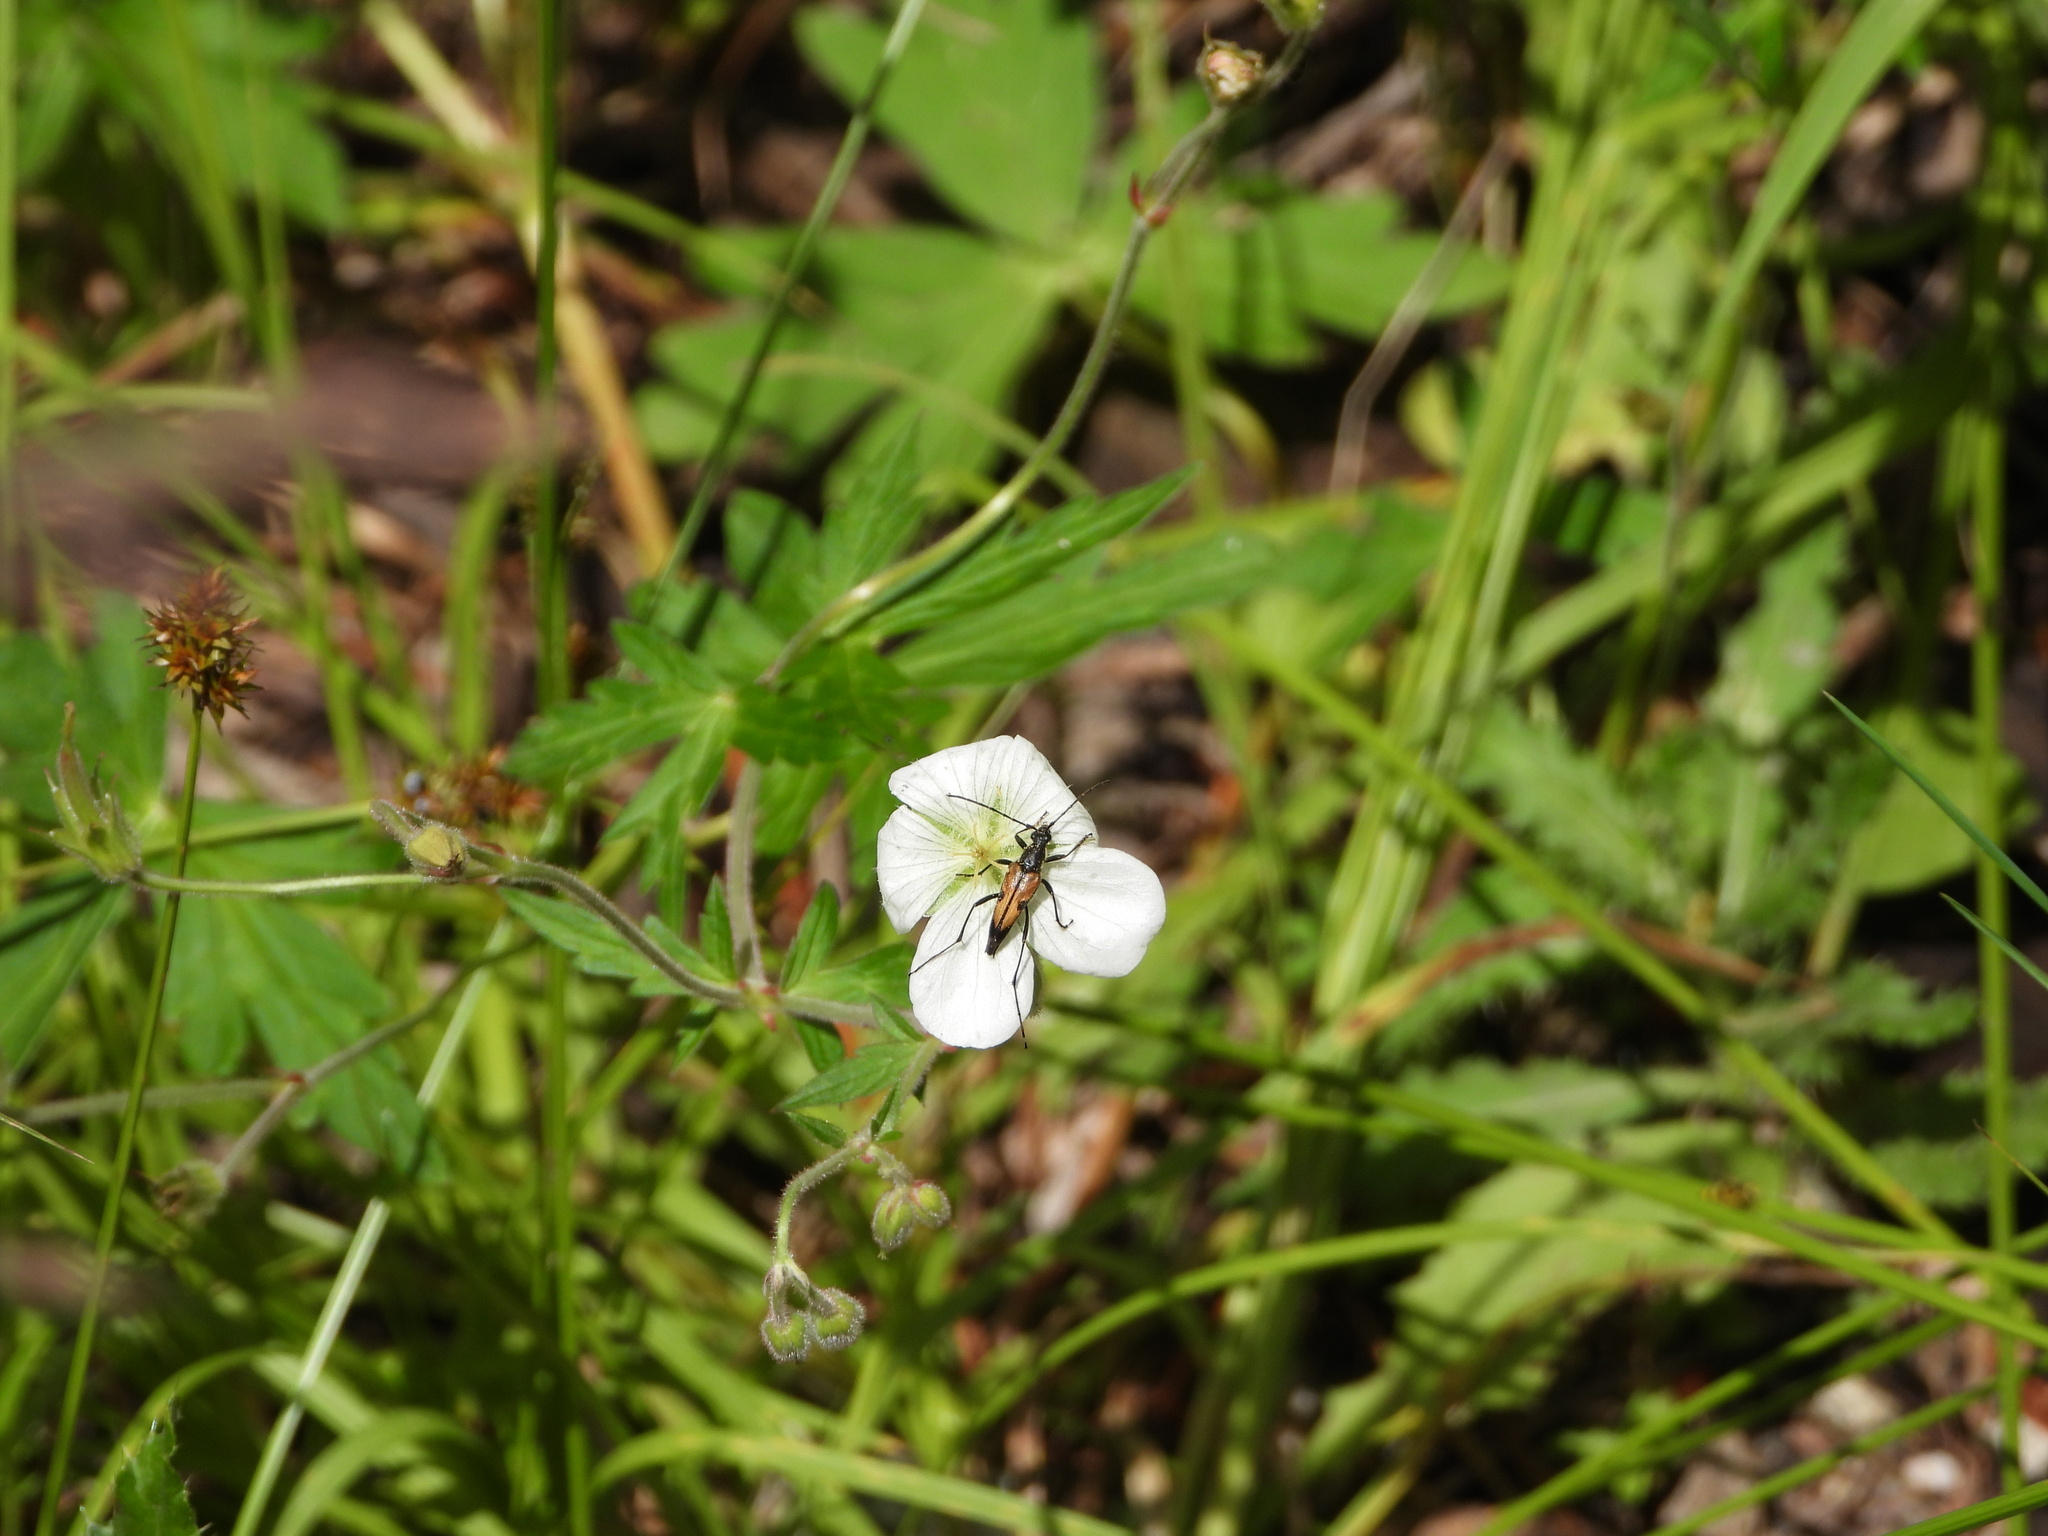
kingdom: Animalia
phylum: Arthropoda
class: Insecta
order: Coleoptera
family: Cerambycidae
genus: Etorofus
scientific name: Etorofus
